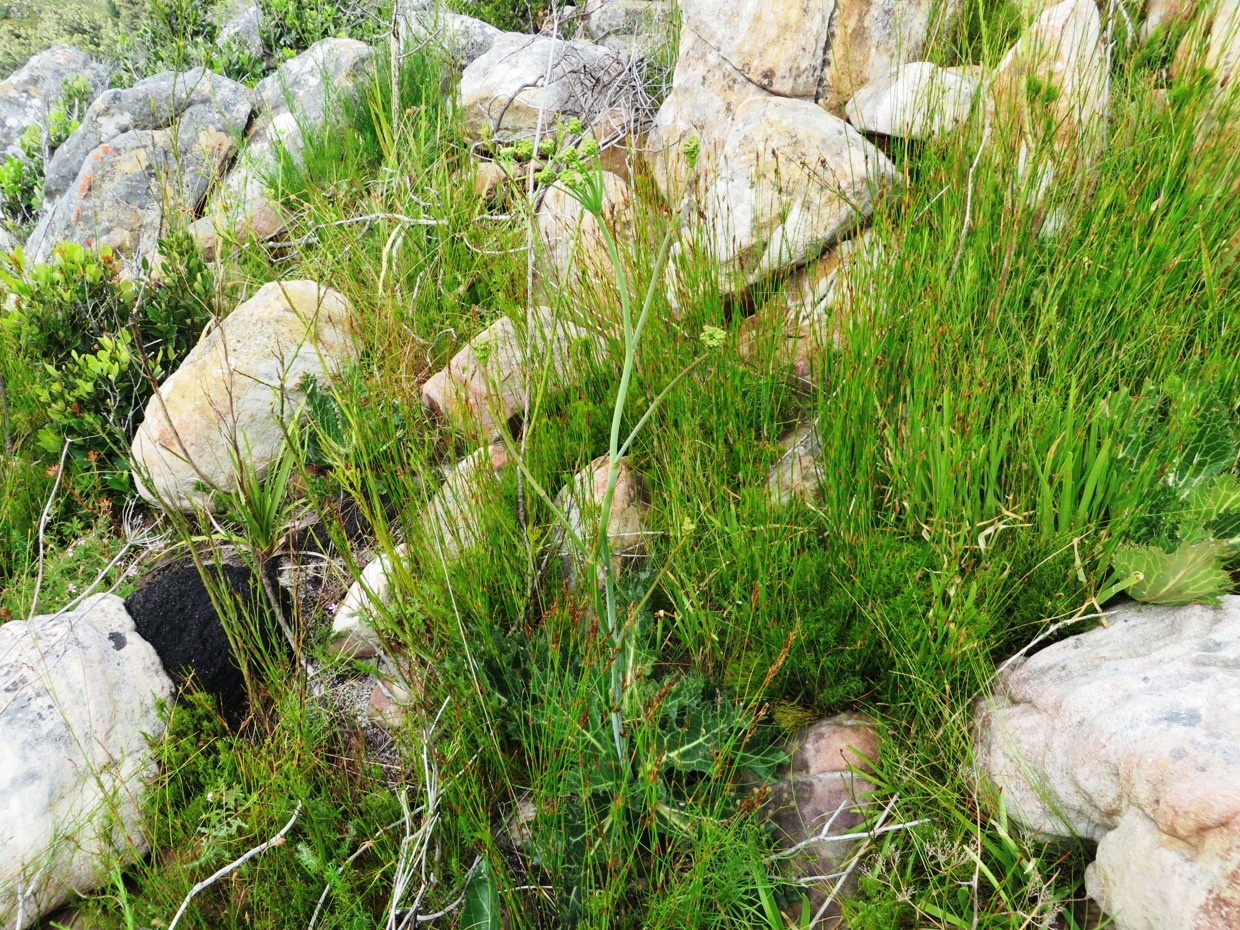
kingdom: Plantae
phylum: Tracheophyta
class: Magnoliopsida
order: Apiales
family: Apiaceae
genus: Lichtensteinia
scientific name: Lichtensteinia lacera
